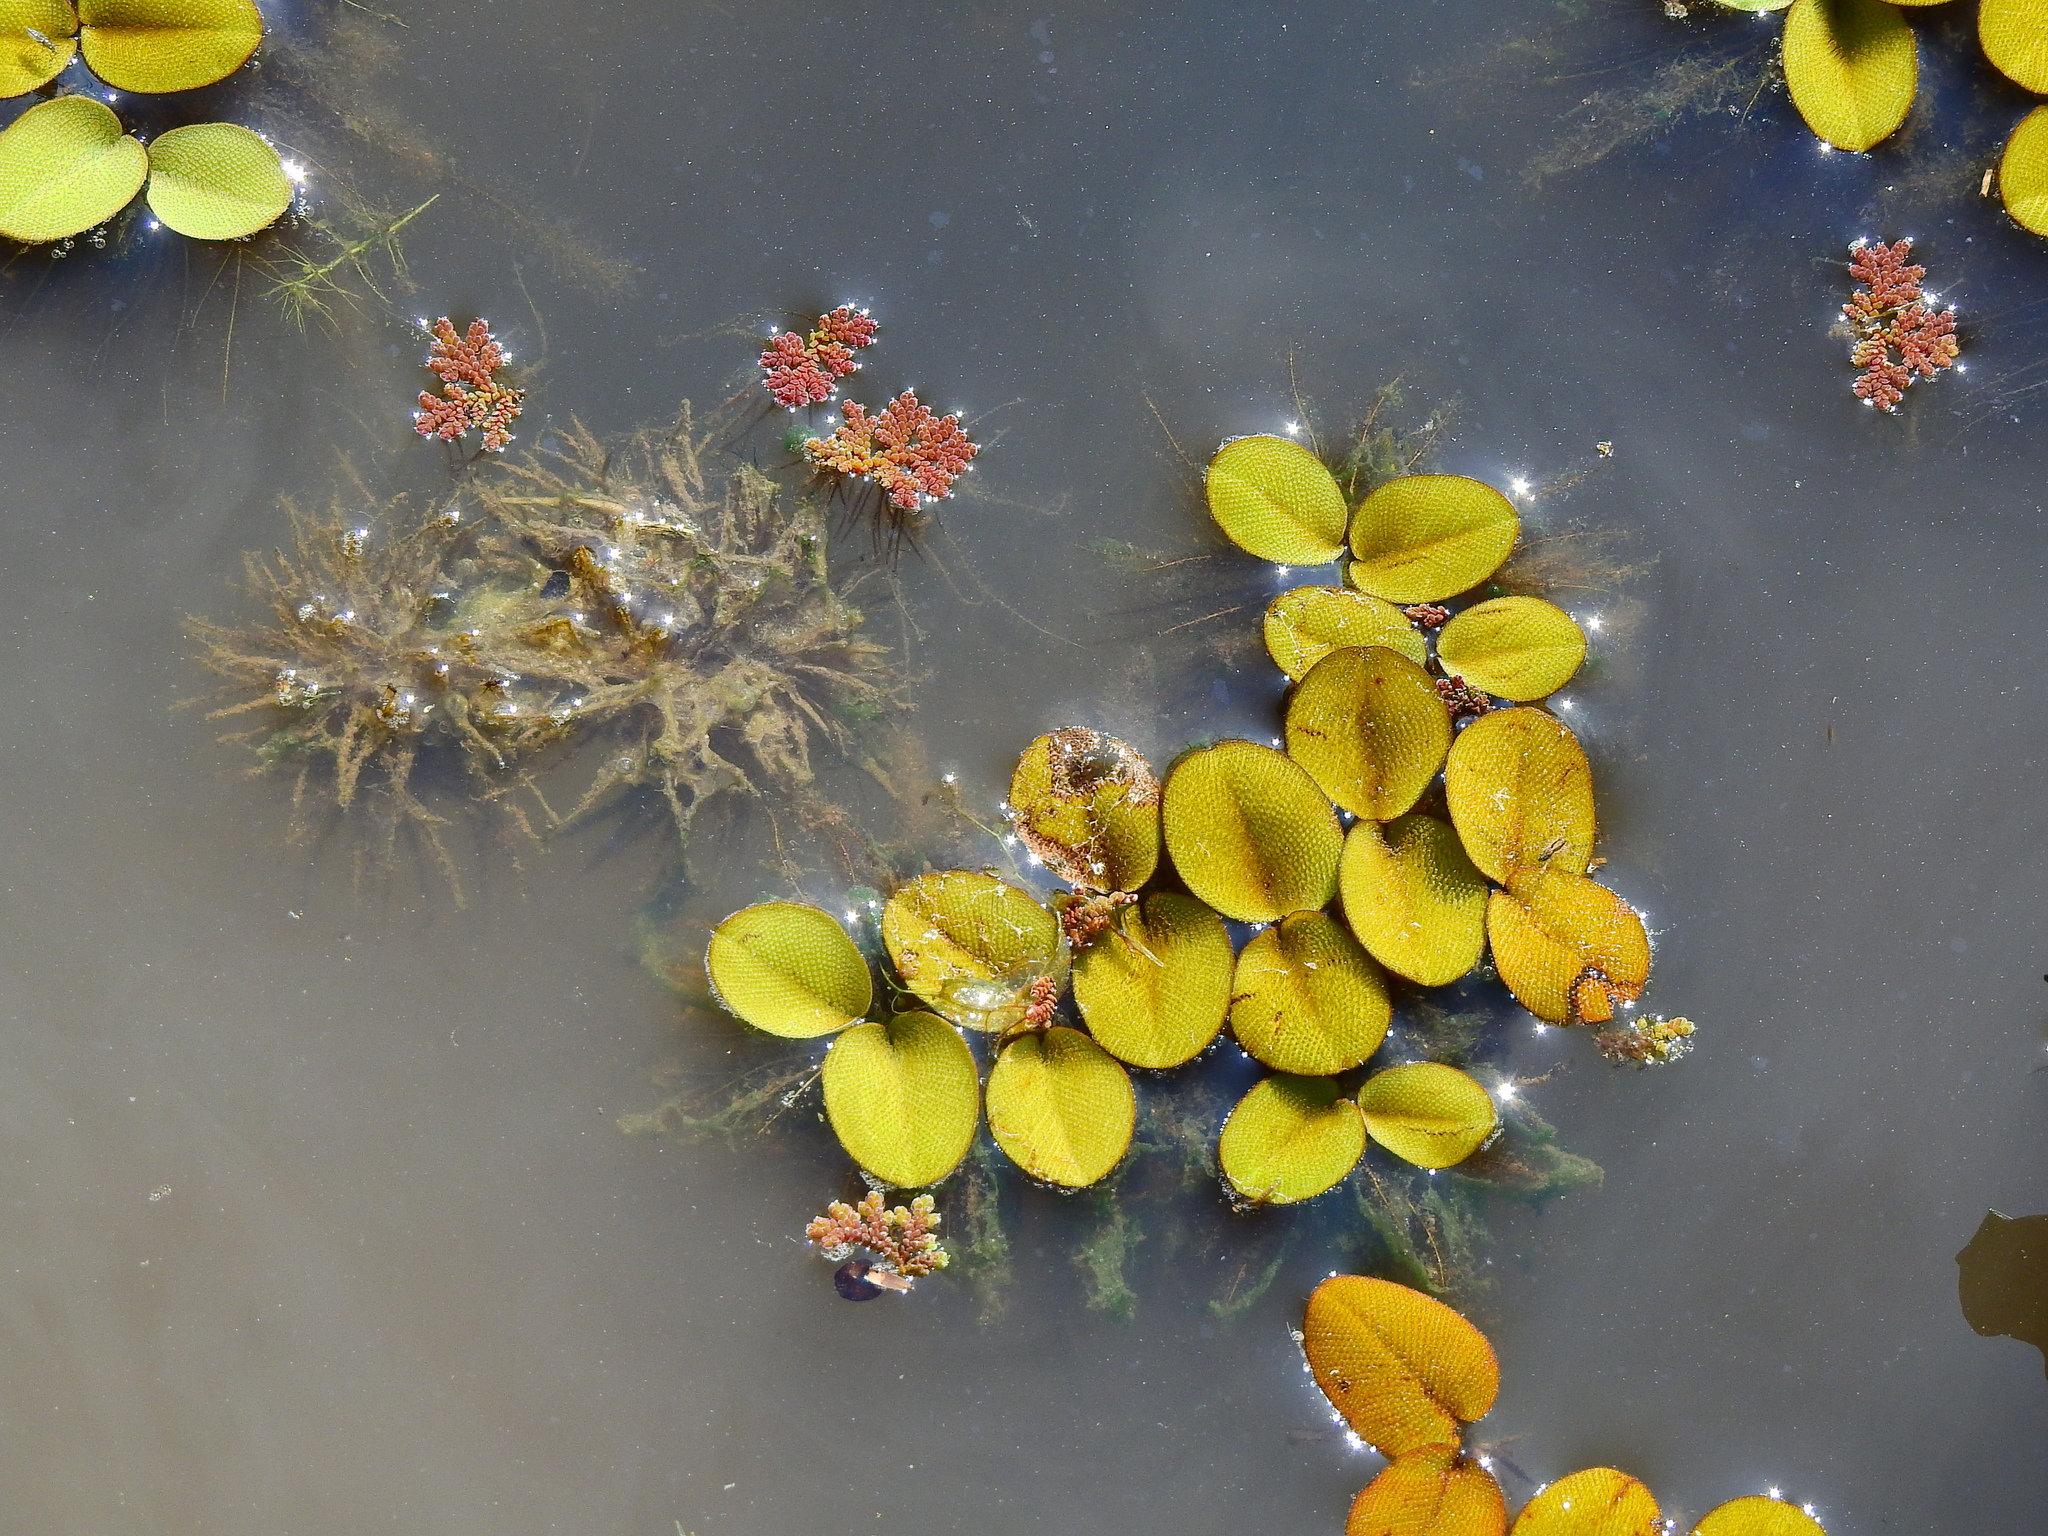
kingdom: Plantae
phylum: Tracheophyta
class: Polypodiopsida
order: Salviniales
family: Salviniaceae
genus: Salvinia
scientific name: Salvinia minima
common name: Water spangles
